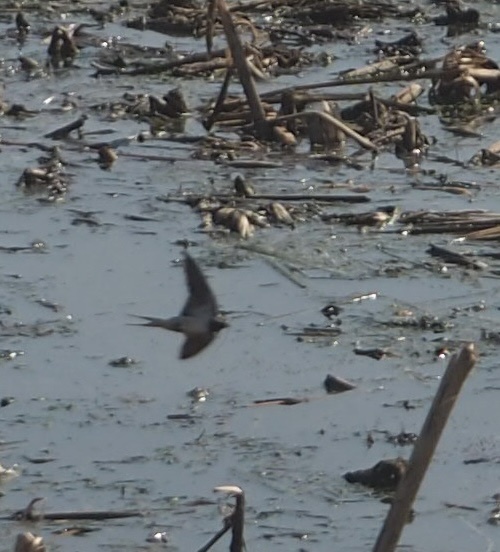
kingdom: Animalia
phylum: Chordata
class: Aves
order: Passeriformes
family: Hirundinidae
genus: Hirundo
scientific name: Hirundo rustica
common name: Barn swallow
